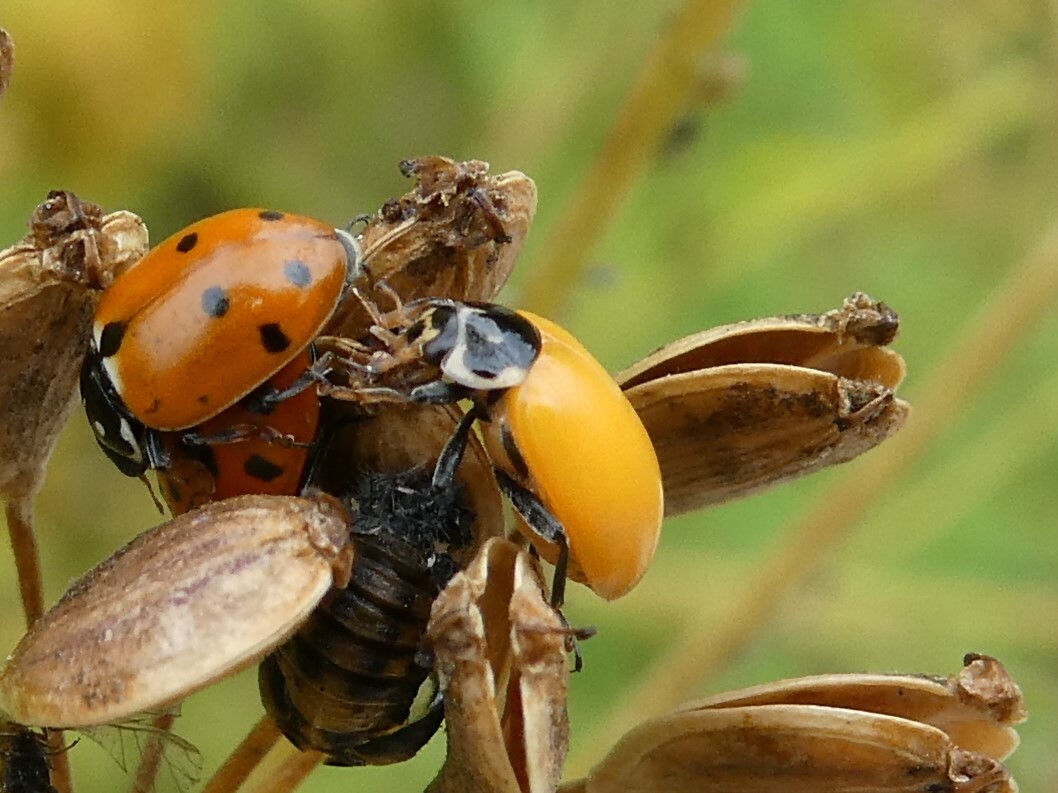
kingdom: Animalia
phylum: Arthropoda
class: Insecta
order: Coleoptera
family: Coccinellidae
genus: Hippodamia
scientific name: Hippodamia variegata
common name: Ladybird beetle
